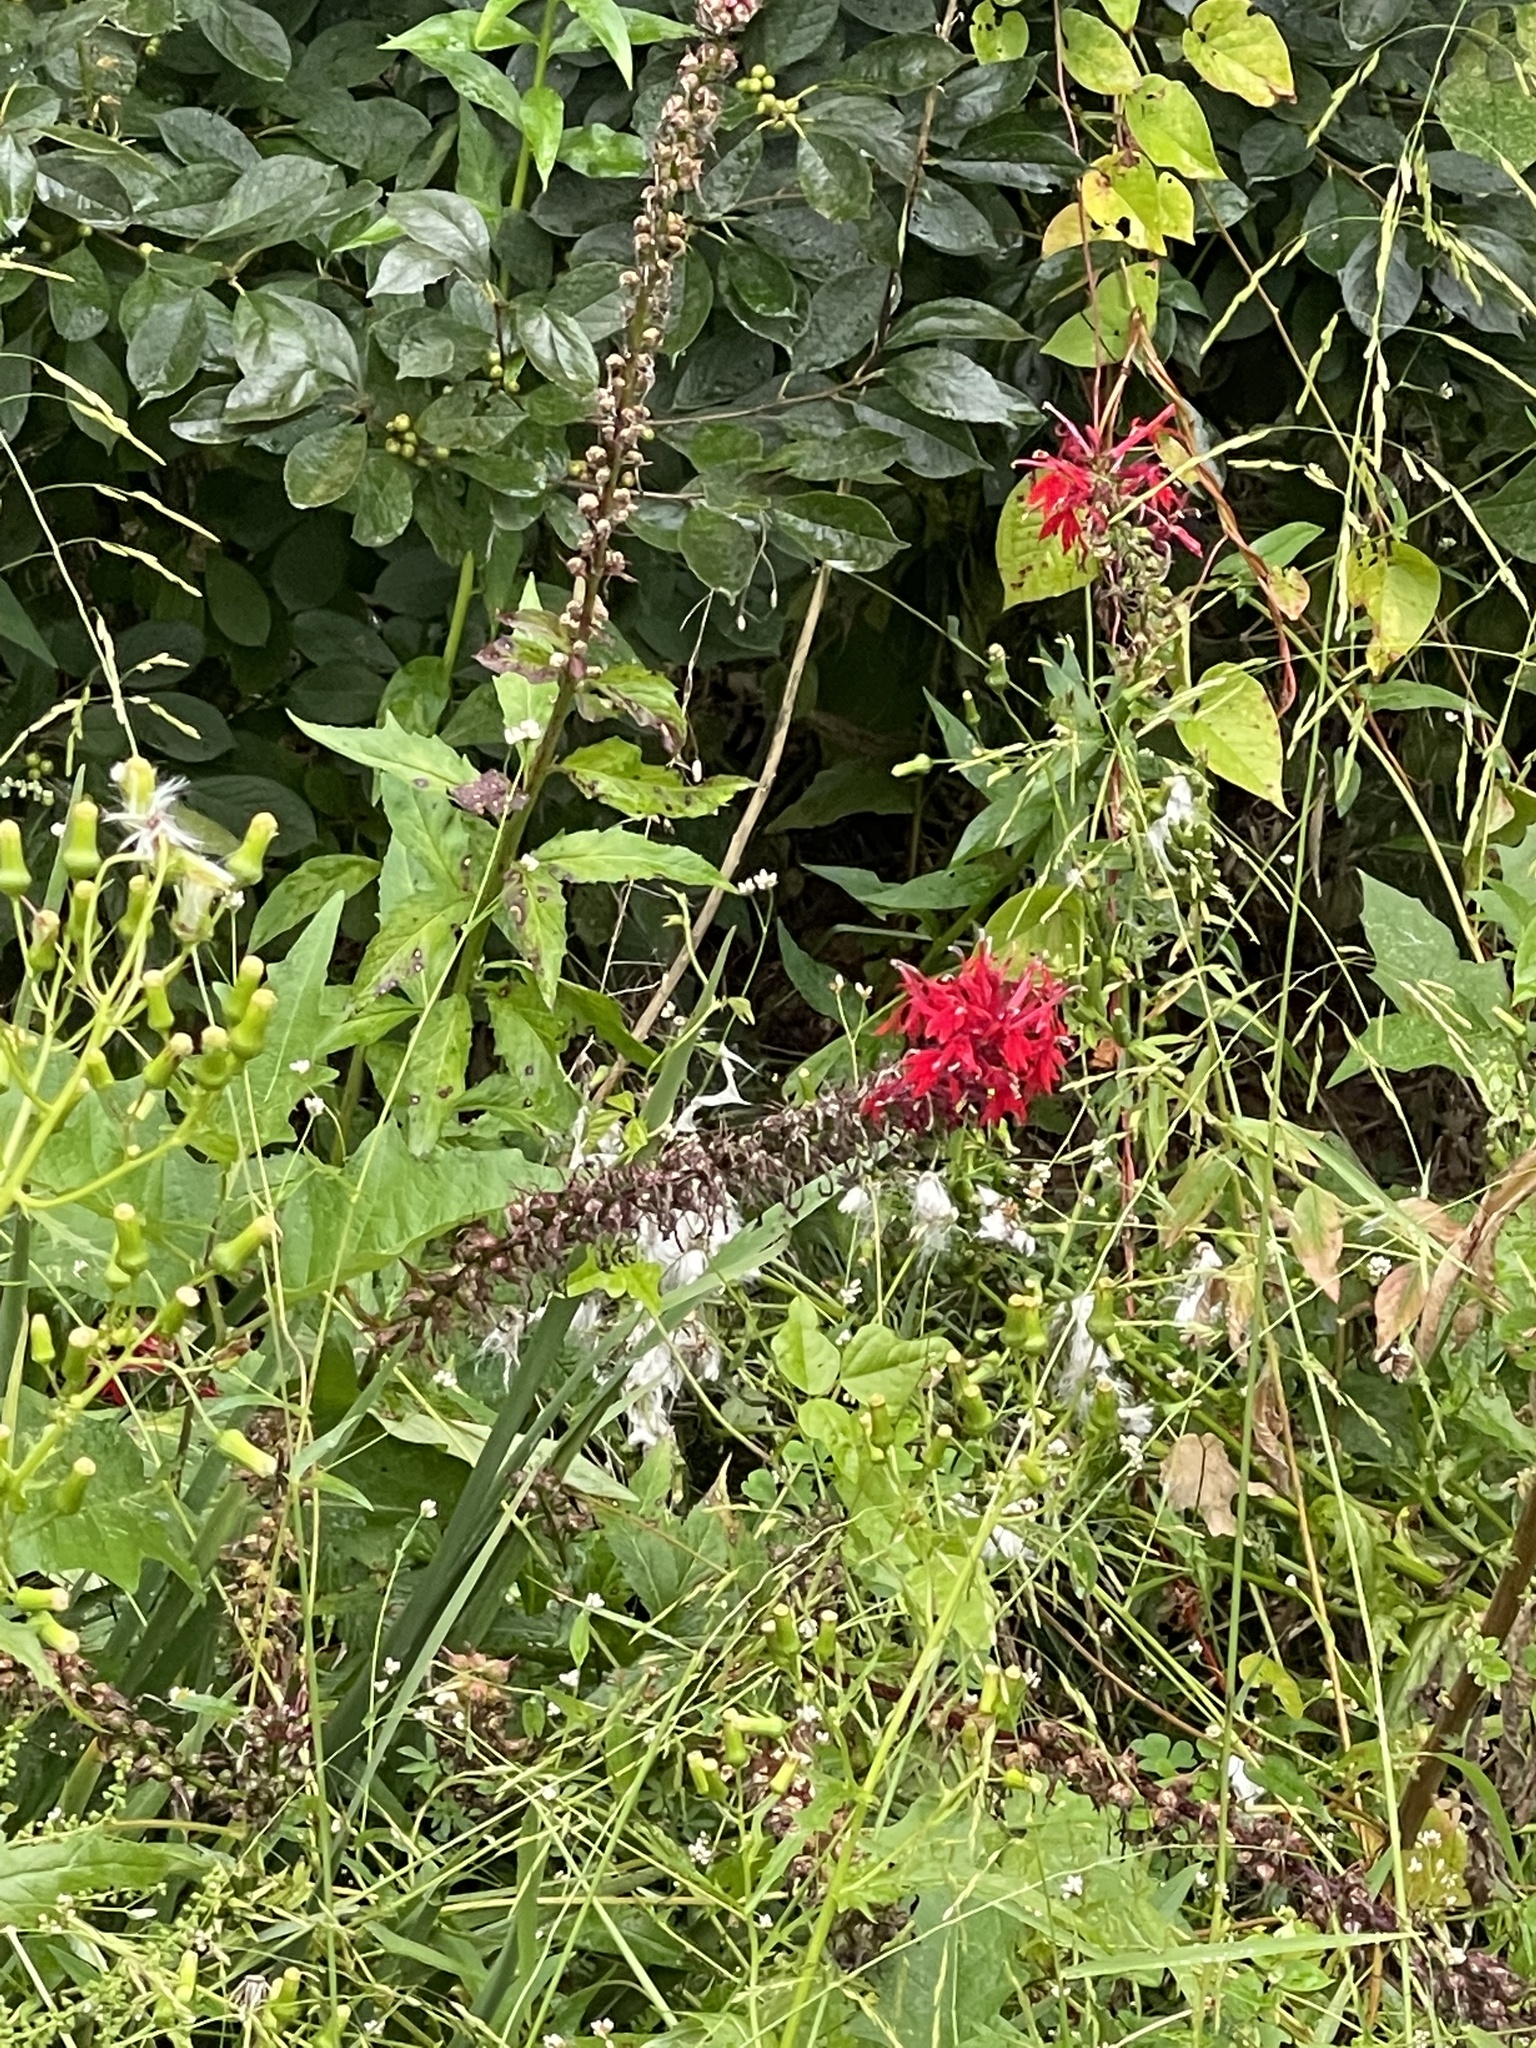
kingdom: Plantae
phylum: Tracheophyta
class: Magnoliopsida
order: Asterales
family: Campanulaceae
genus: Lobelia
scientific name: Lobelia cardinalis
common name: Cardinal flower
